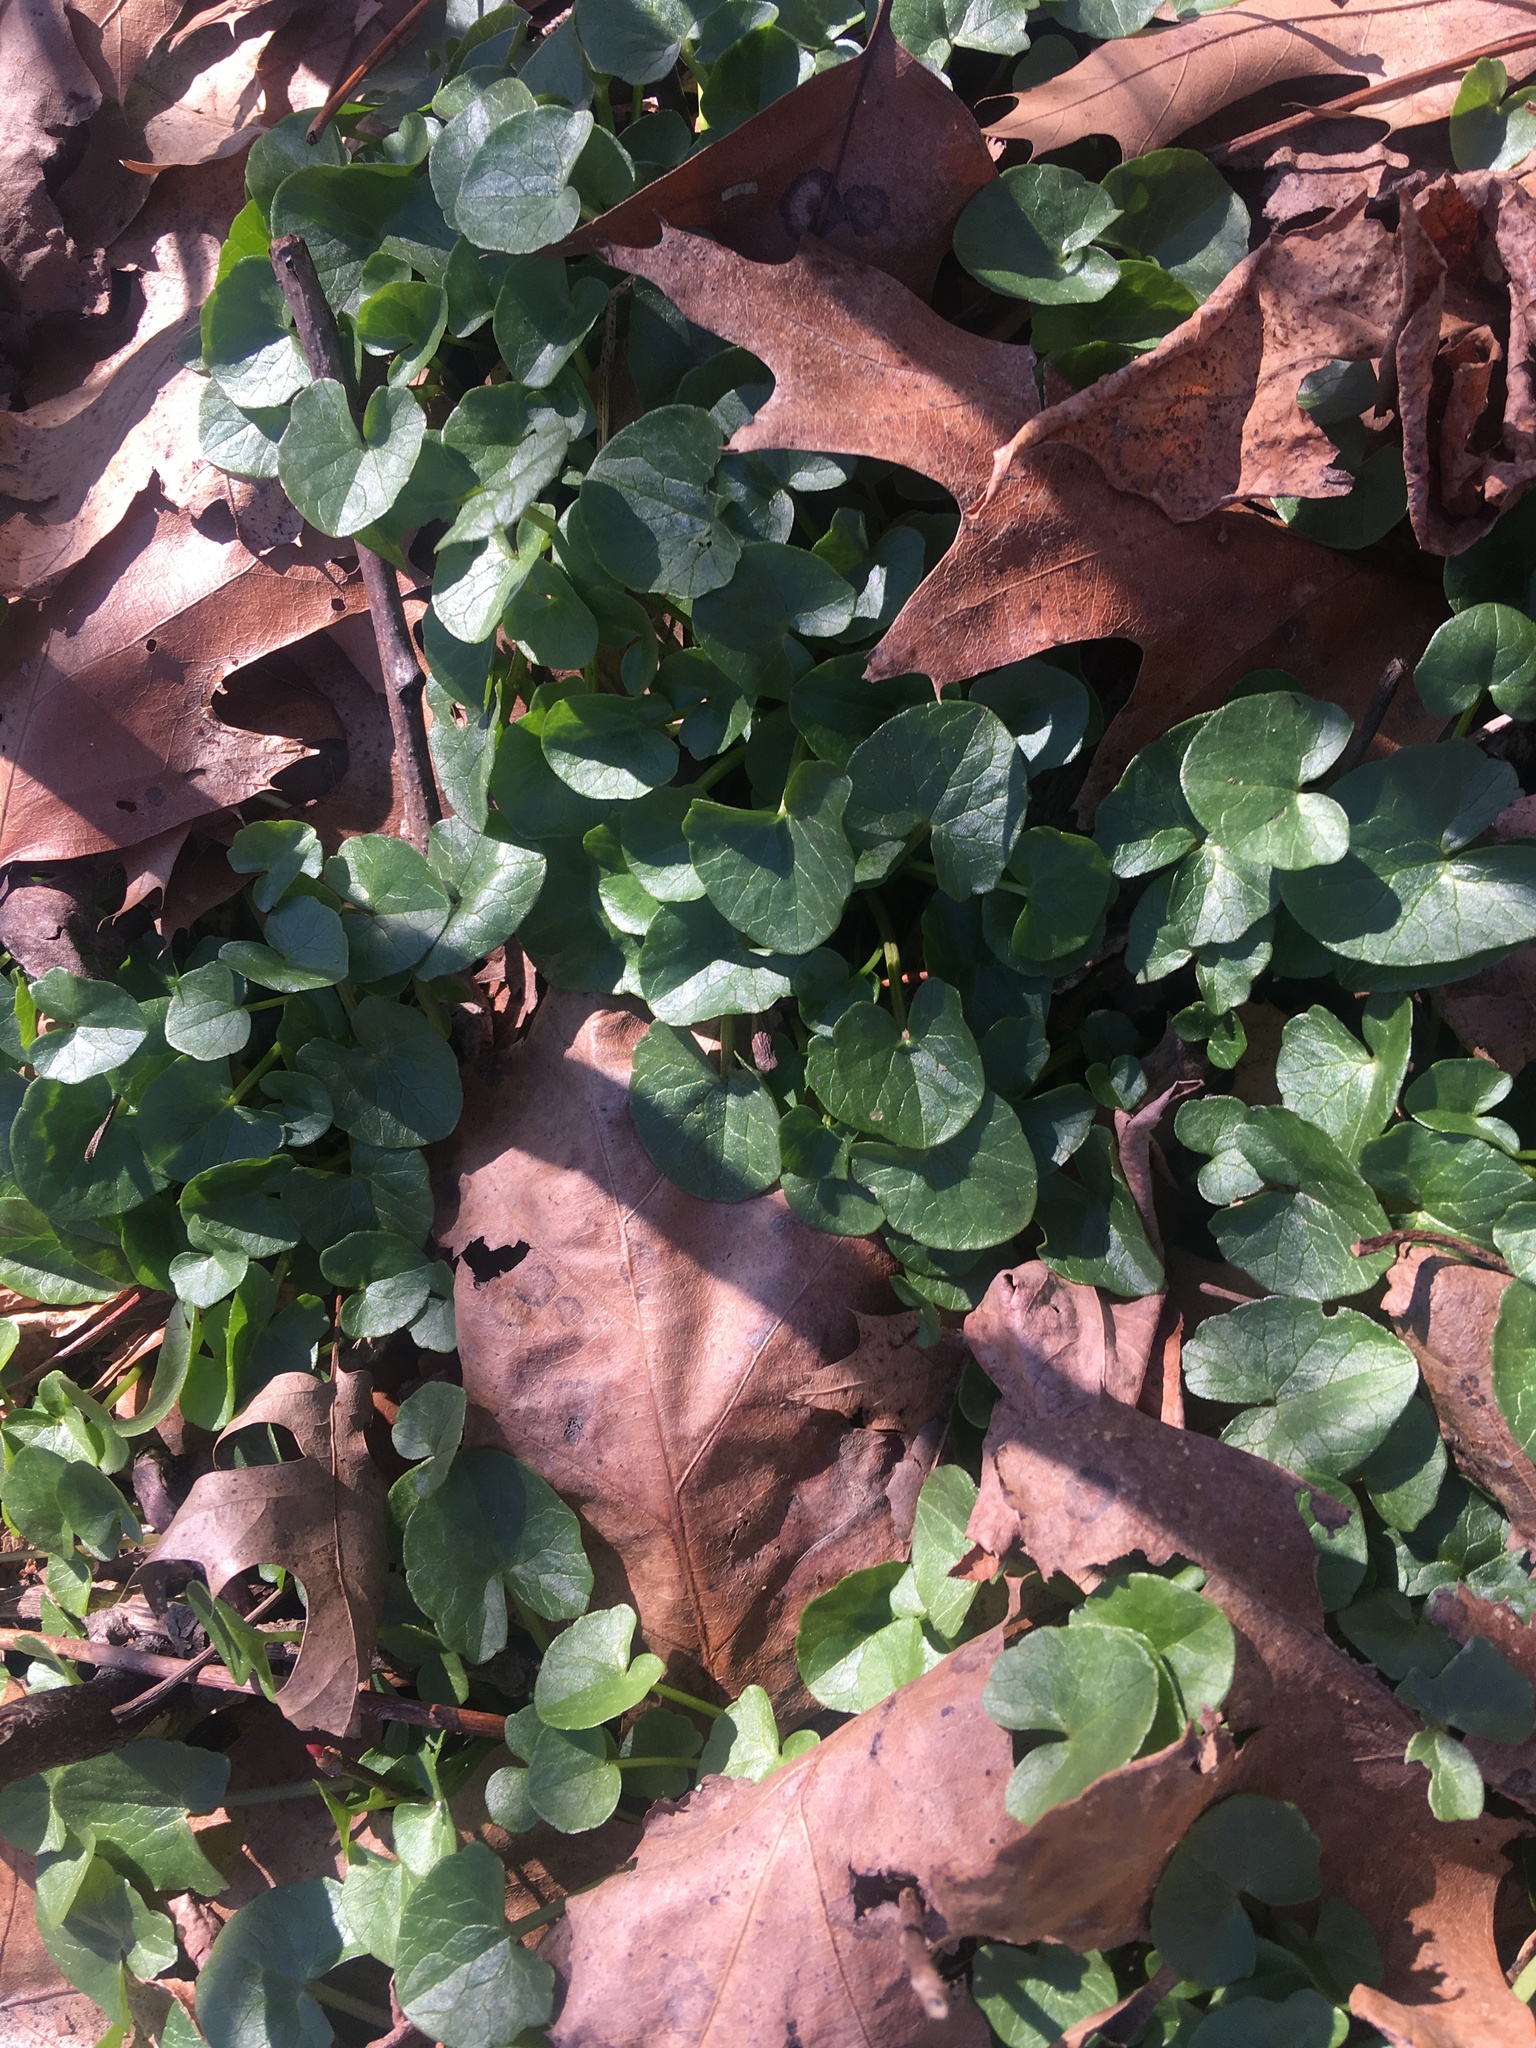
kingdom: Plantae
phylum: Tracheophyta
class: Magnoliopsida
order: Ranunculales
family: Ranunculaceae
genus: Ficaria
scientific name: Ficaria verna
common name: Lesser celandine
